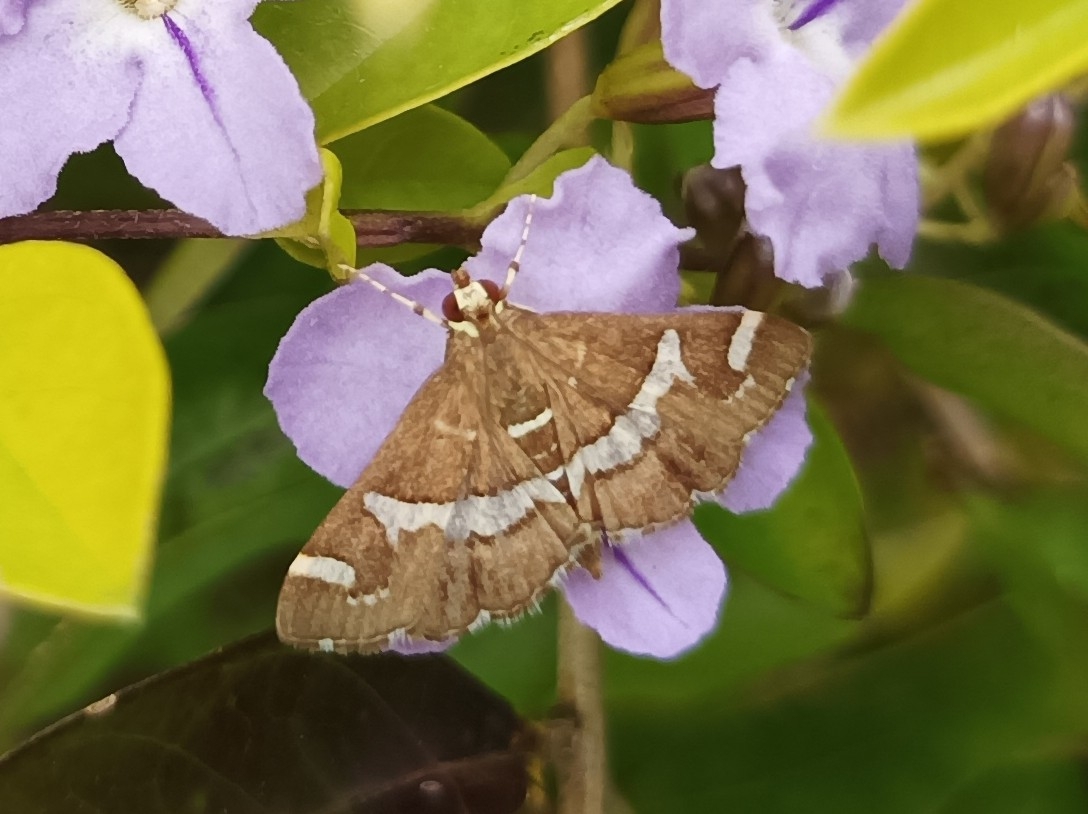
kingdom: Animalia
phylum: Arthropoda
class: Insecta
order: Lepidoptera
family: Crambidae
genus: Spoladea
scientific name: Spoladea recurvalis
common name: Beet webworm moth
